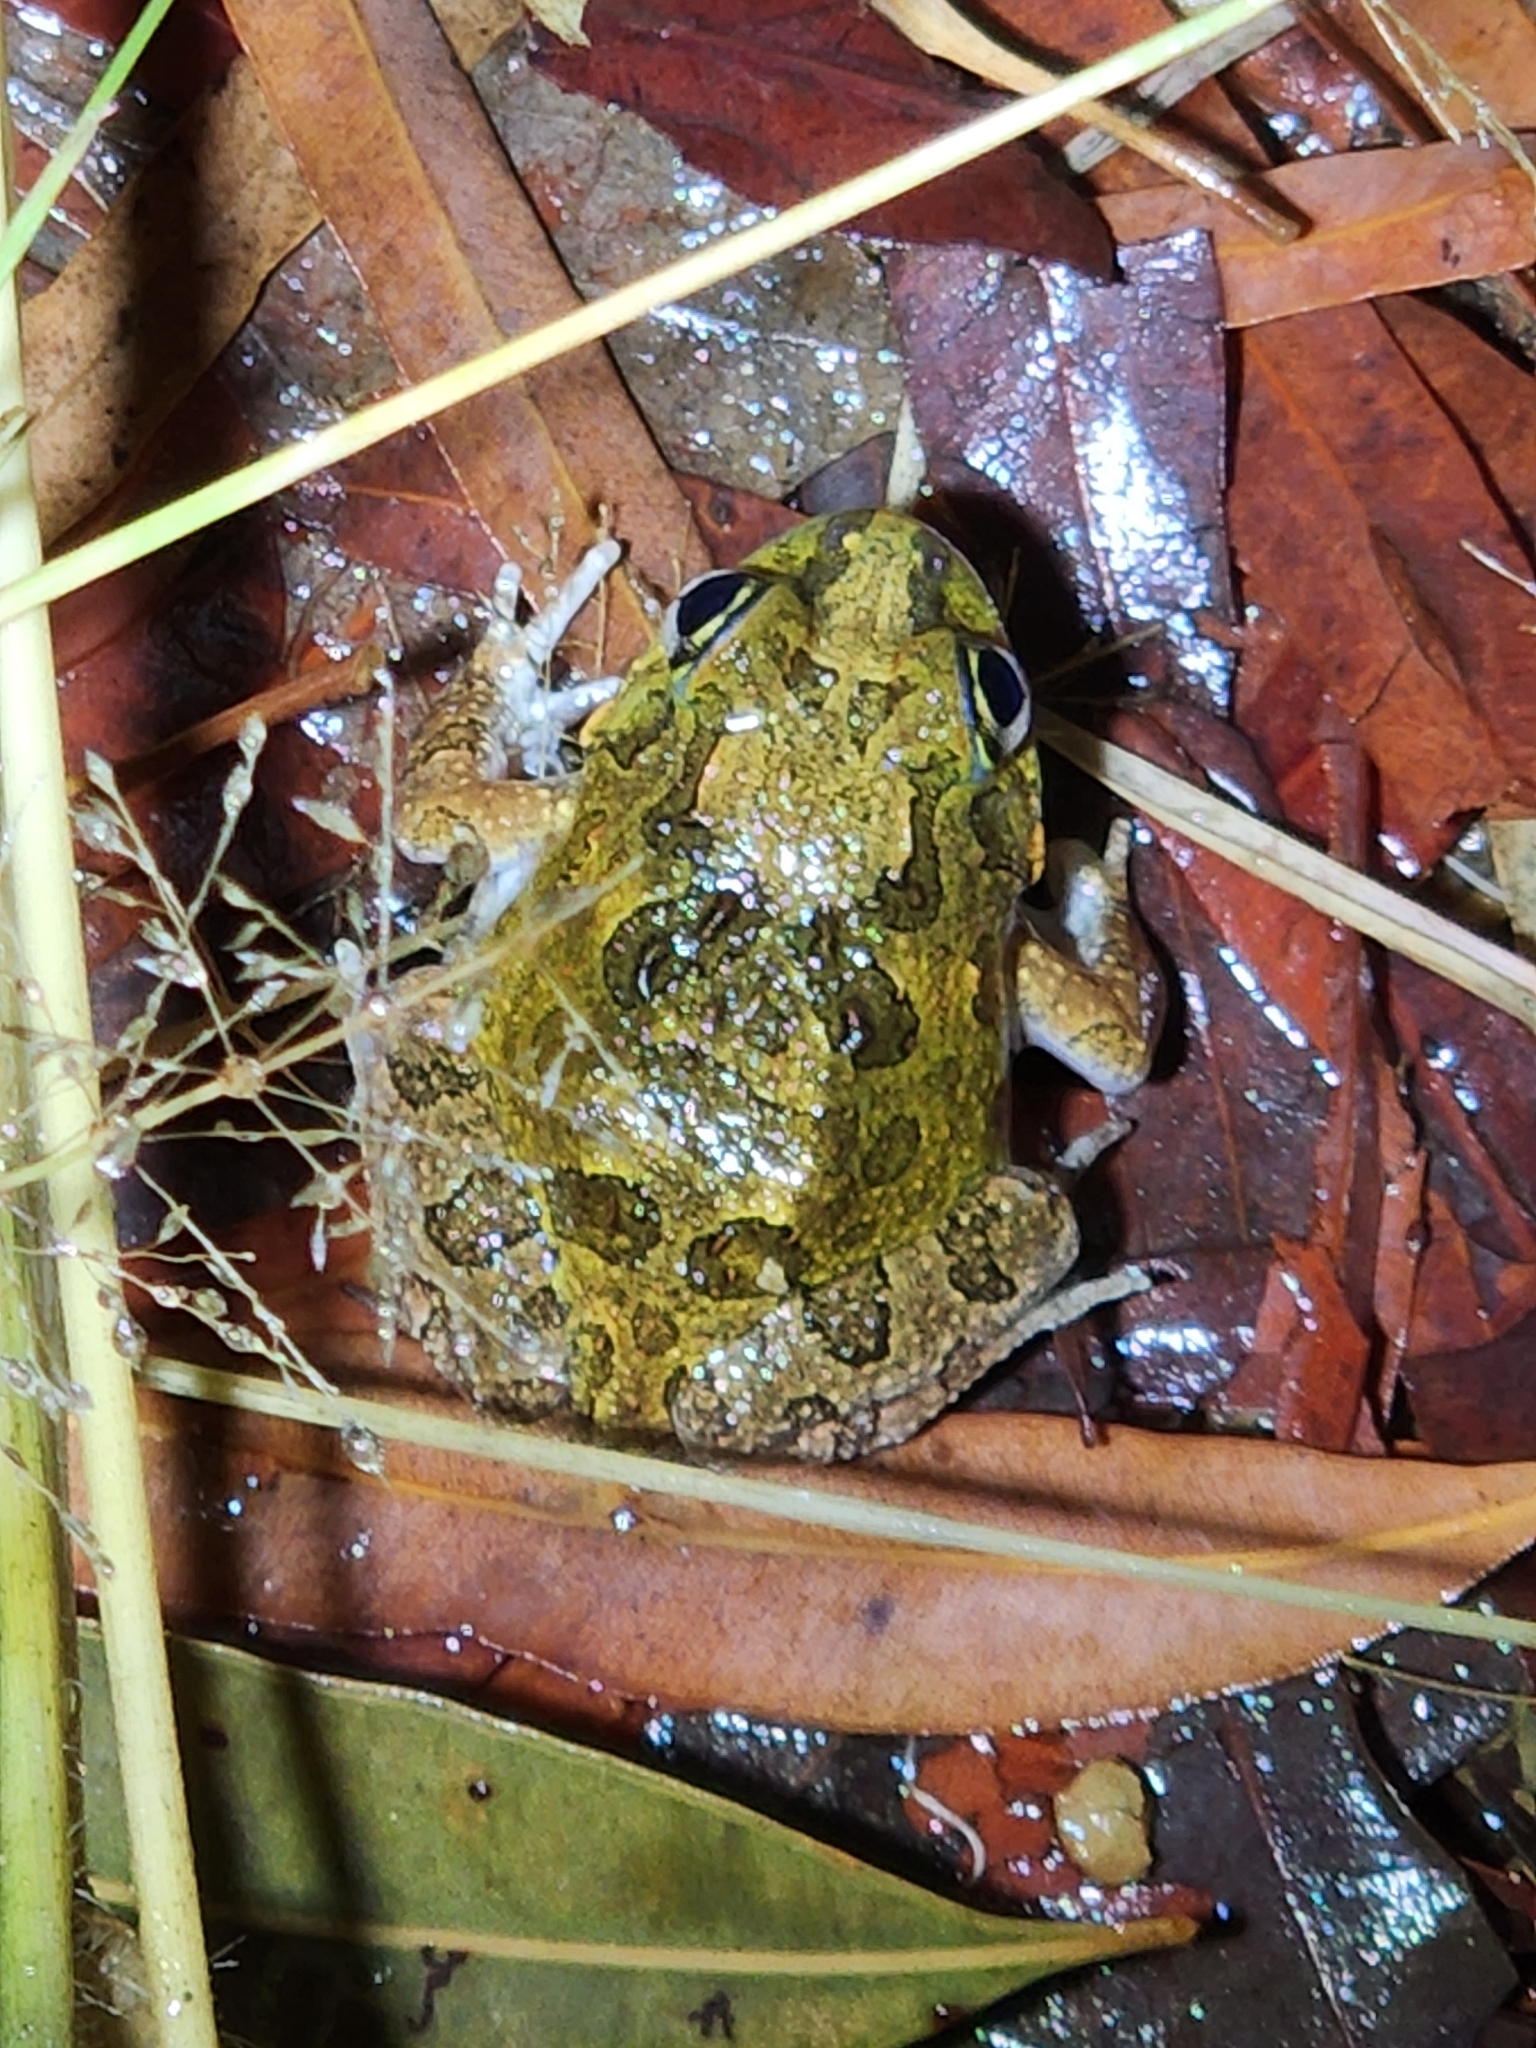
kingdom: Animalia
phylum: Chordata
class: Amphibia
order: Anura
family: Limnodynastidae
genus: Platyplectrum
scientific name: Platyplectrum ornatum
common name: Ornate burrowing frog
